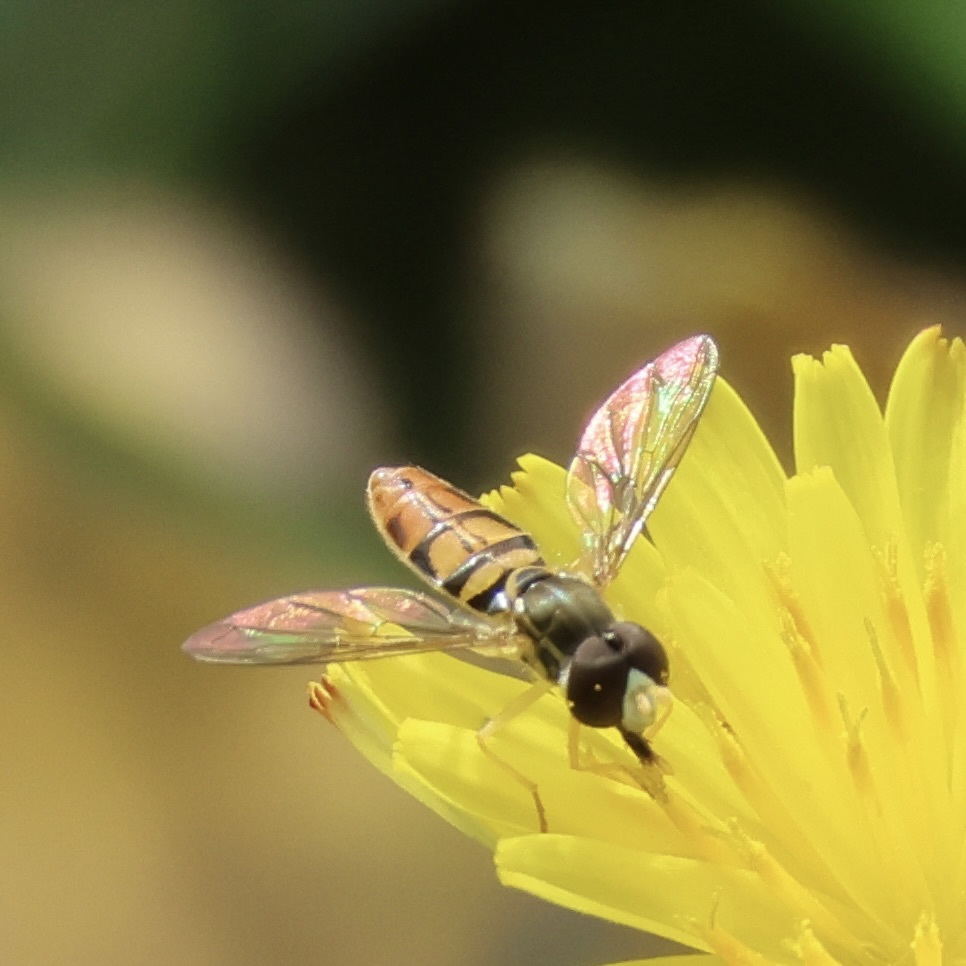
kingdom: Animalia
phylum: Arthropoda
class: Insecta
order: Diptera
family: Syrphidae
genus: Toxomerus
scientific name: Toxomerus marginatus
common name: Syrphid fly
